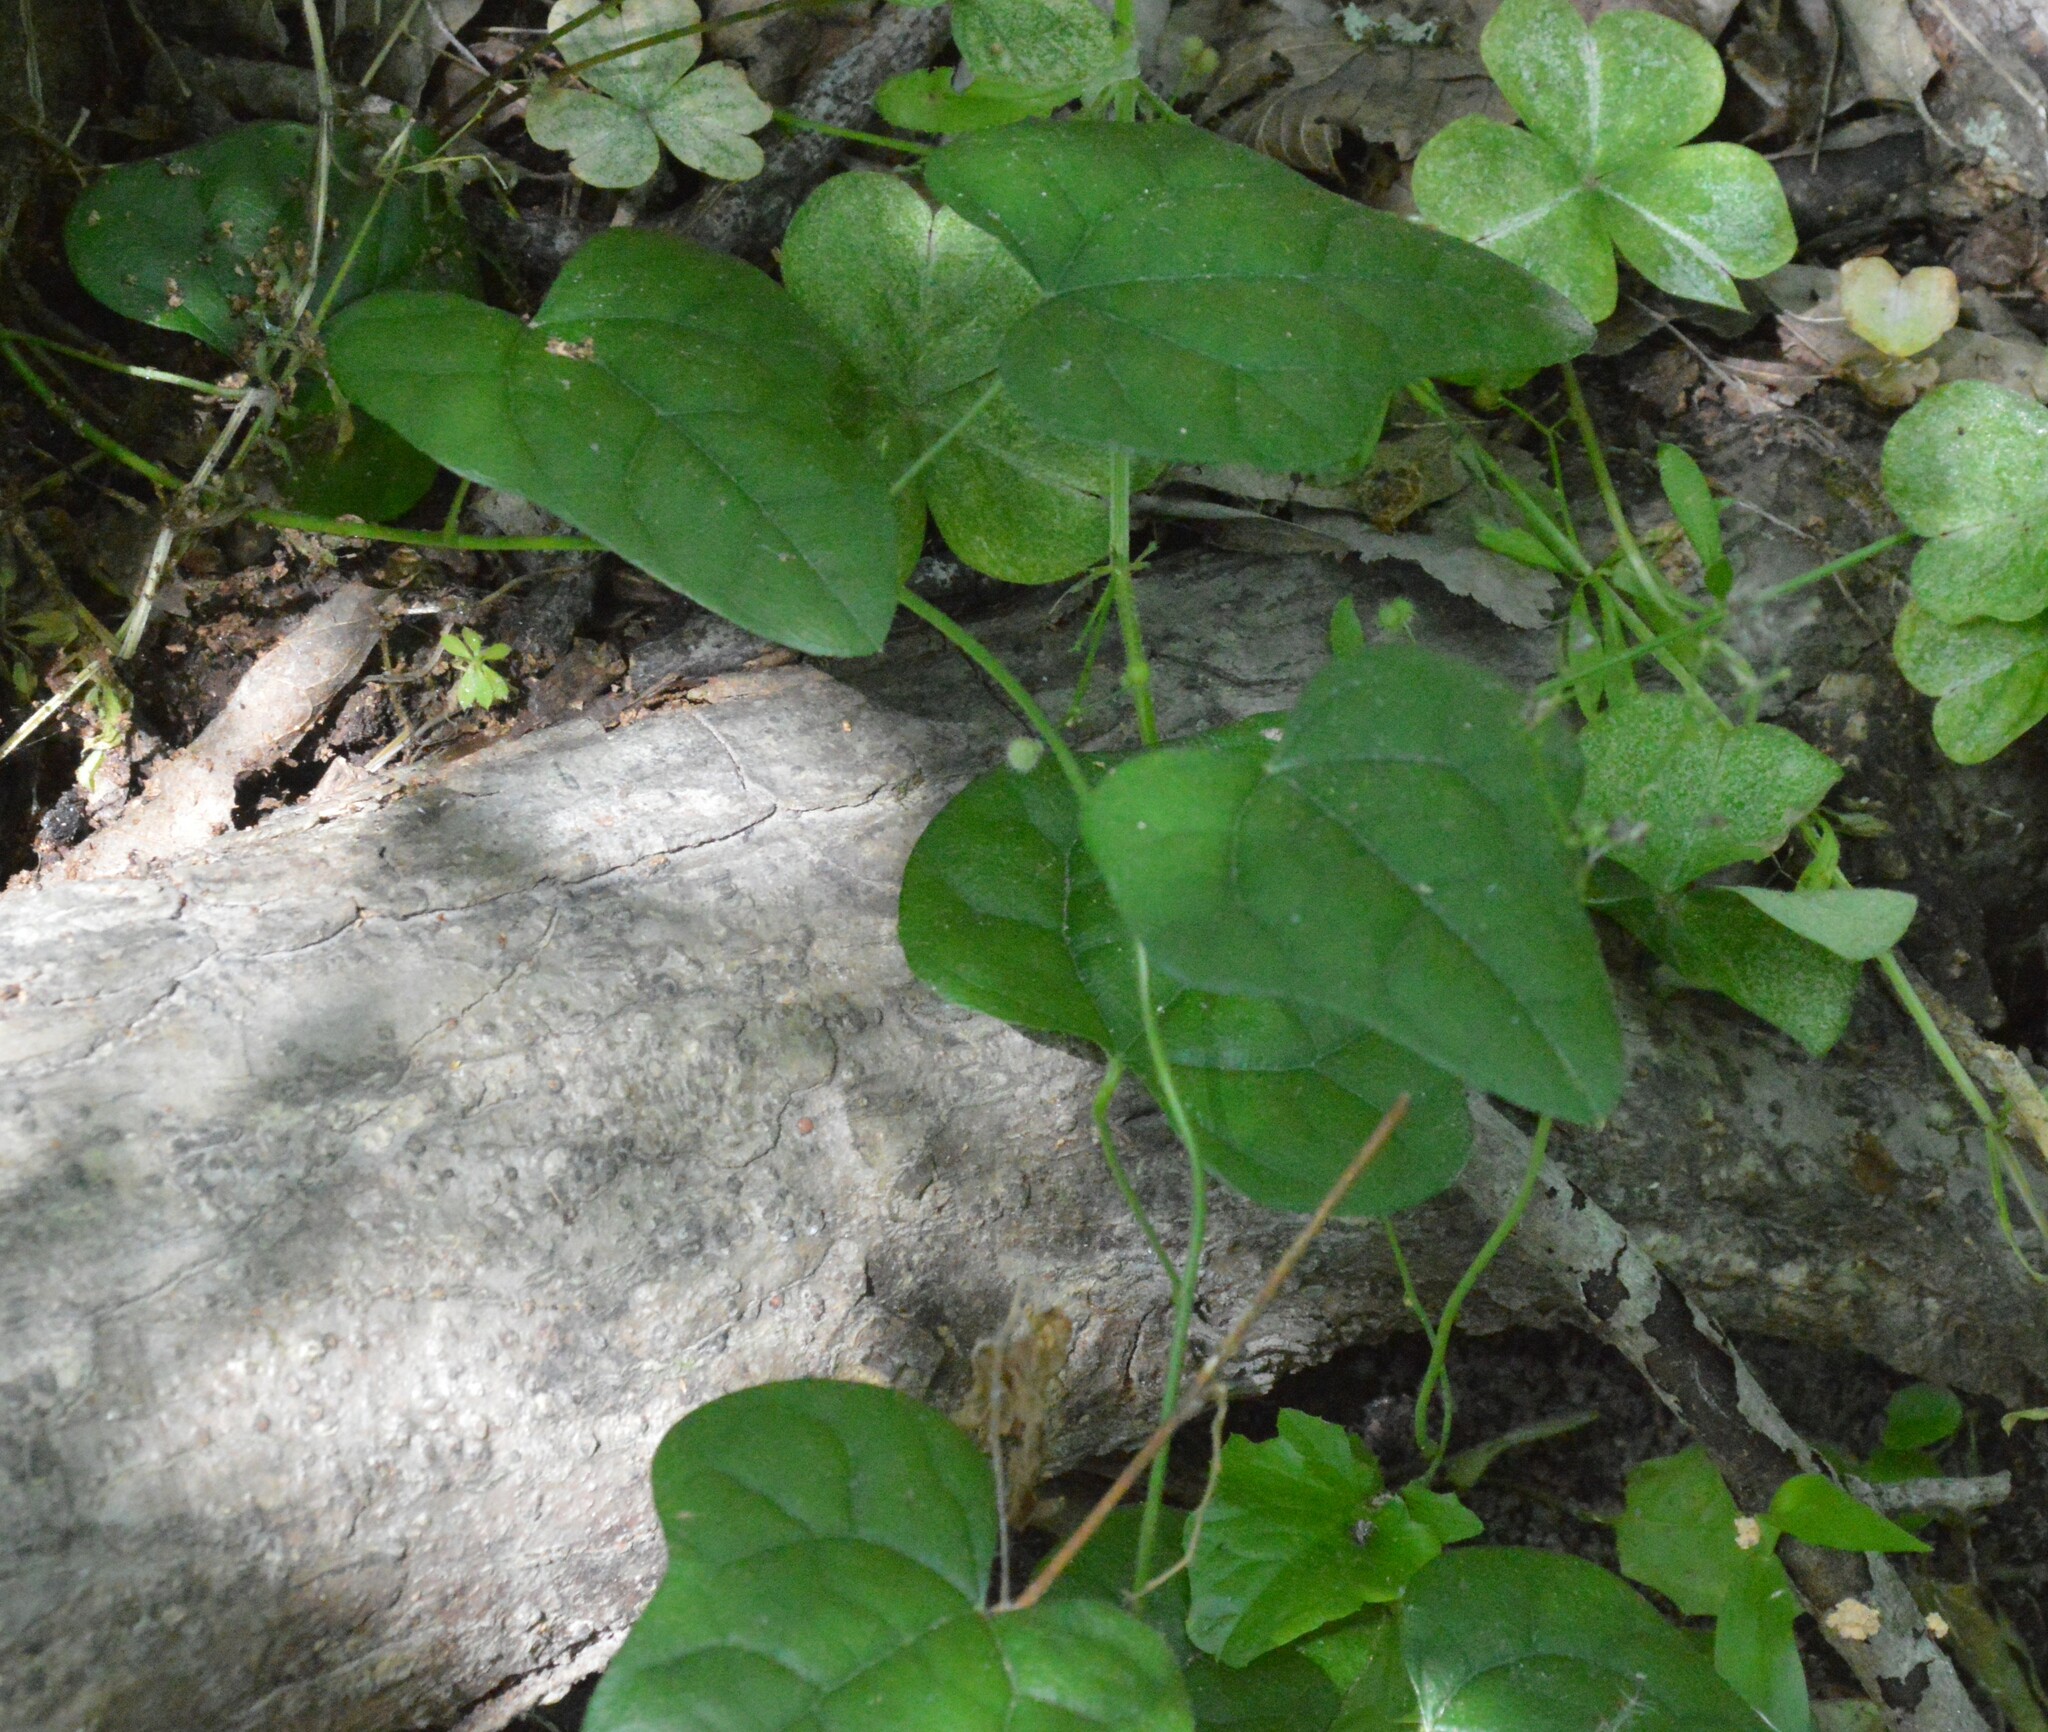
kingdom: Plantae
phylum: Tracheophyta
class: Magnoliopsida
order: Ranunculales
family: Menispermaceae
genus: Cocculus
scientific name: Cocculus carolinus
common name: Carolina moonseed
